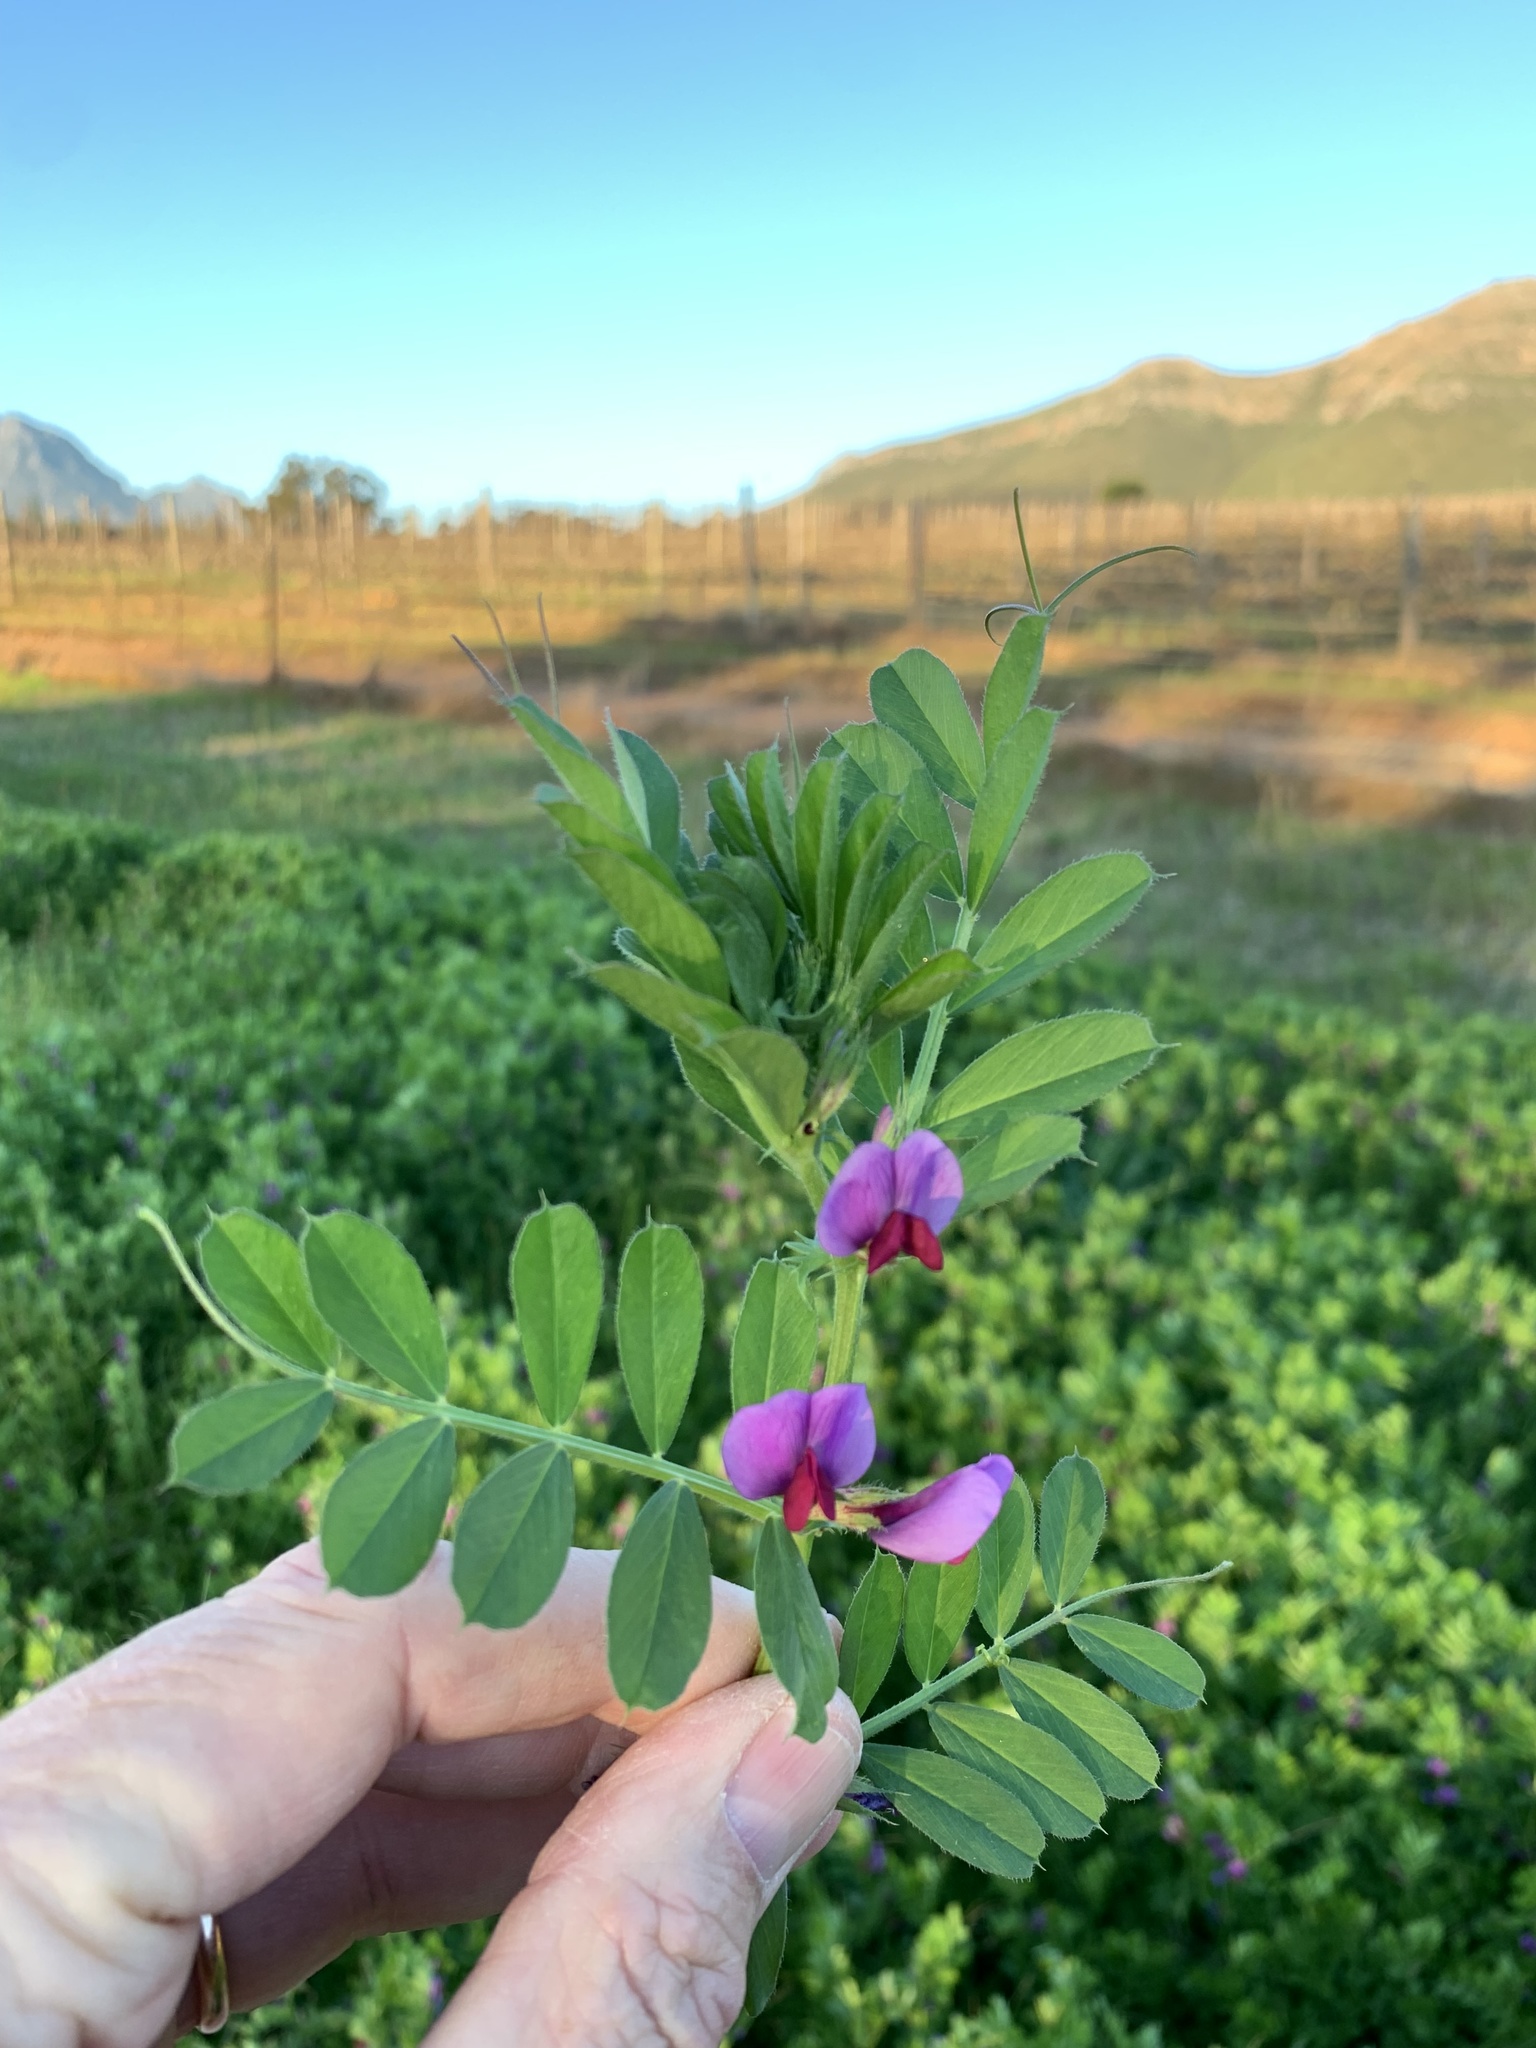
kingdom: Plantae
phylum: Tracheophyta
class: Magnoliopsida
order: Fabales
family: Fabaceae
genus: Vicia
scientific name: Vicia sativa
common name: Garden vetch
